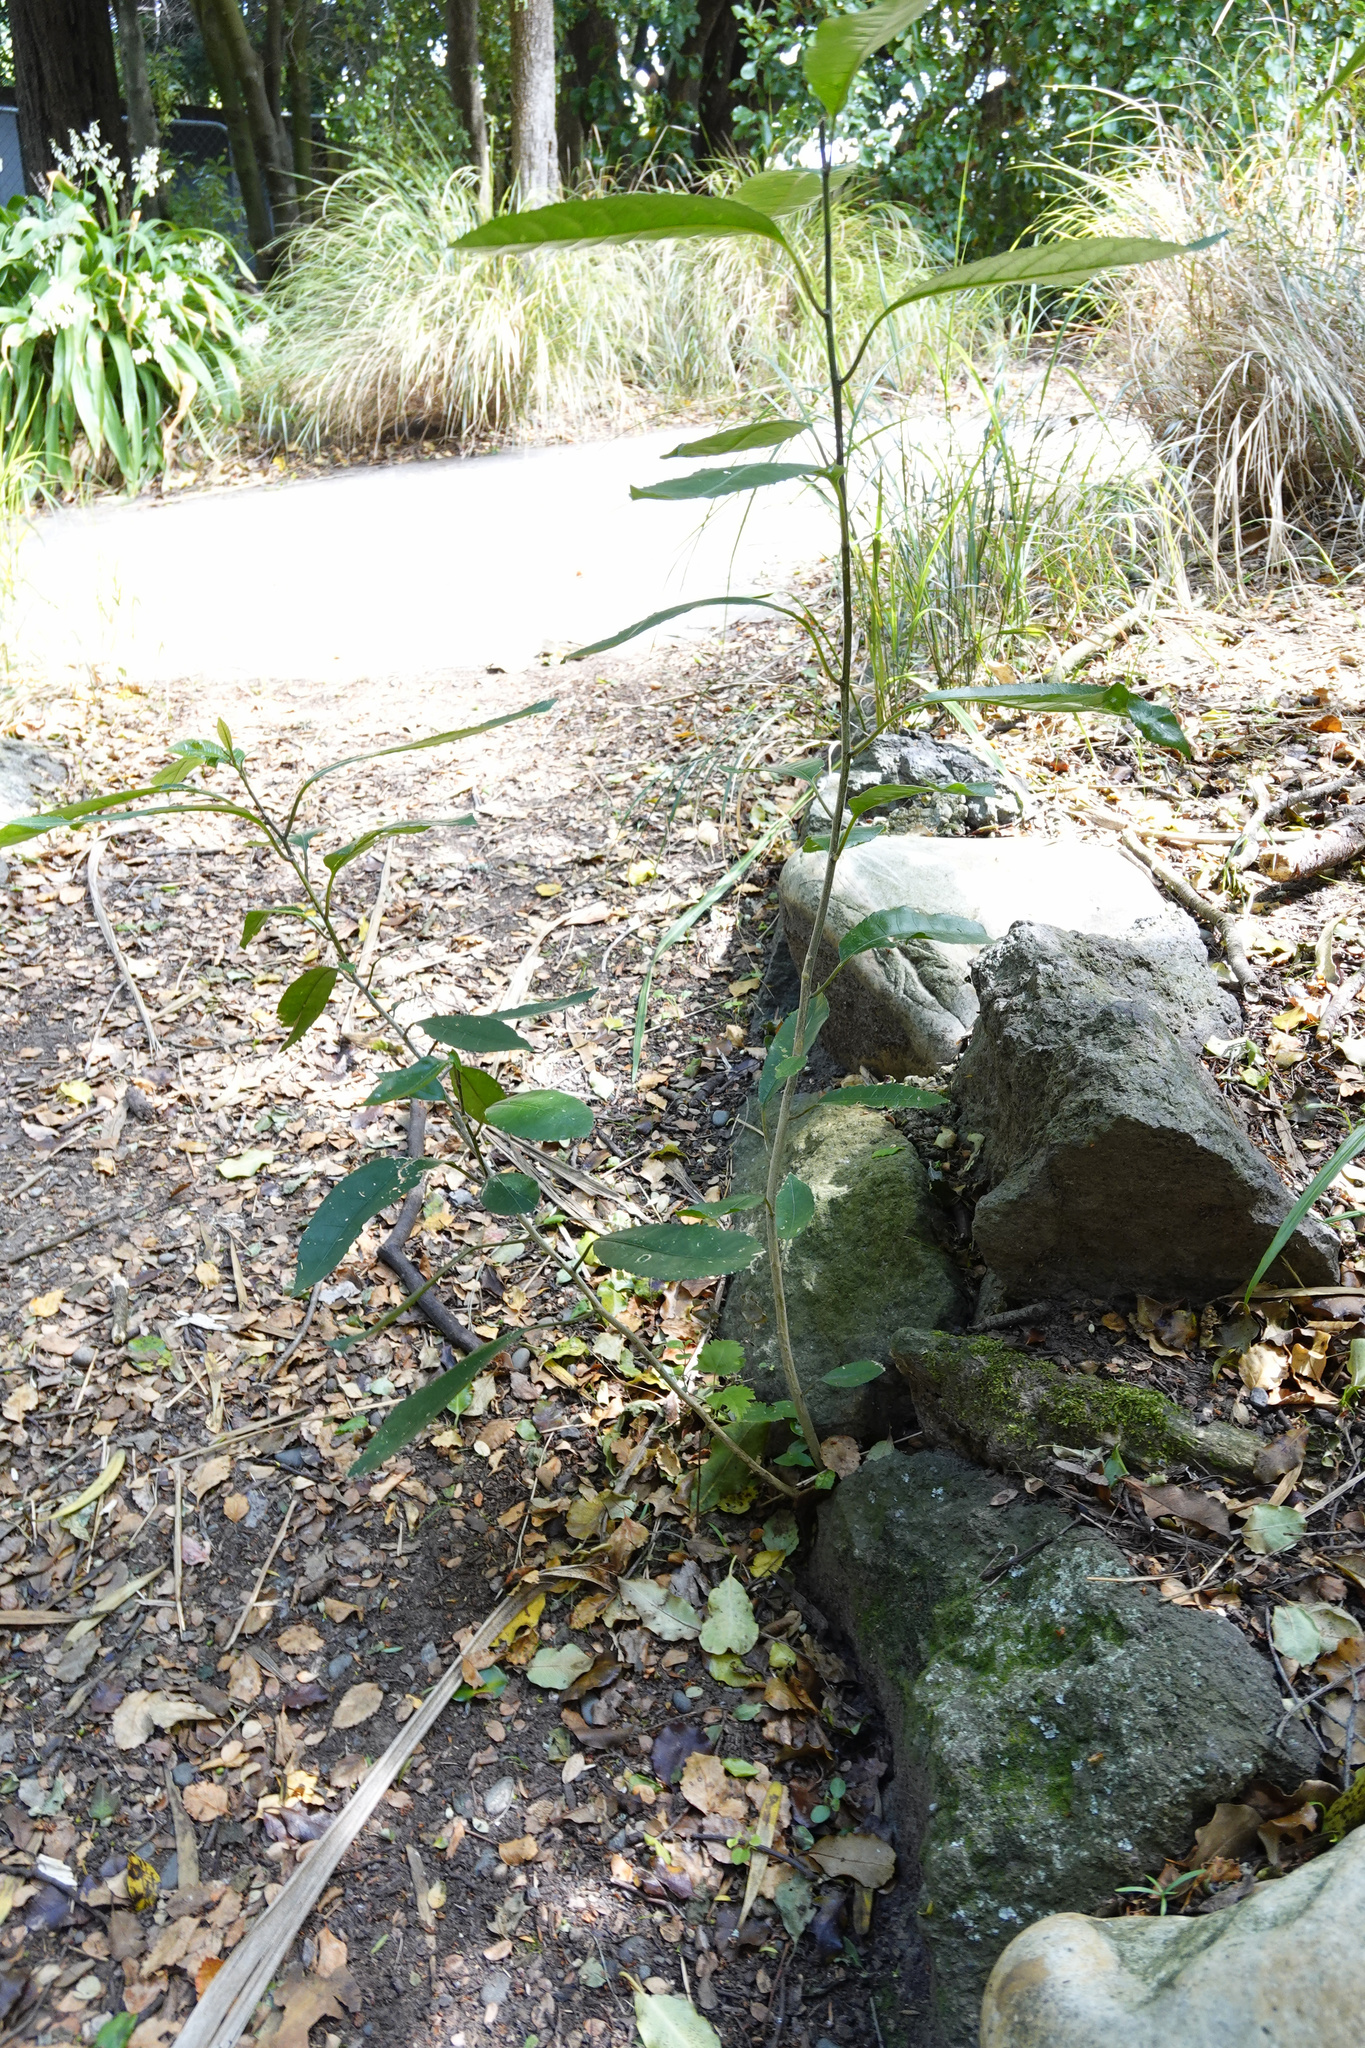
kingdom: Plantae
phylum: Tracheophyta
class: Magnoliopsida
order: Malpighiales
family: Violaceae
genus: Melicytus
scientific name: Melicytus ramiflorus
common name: Mahoe
